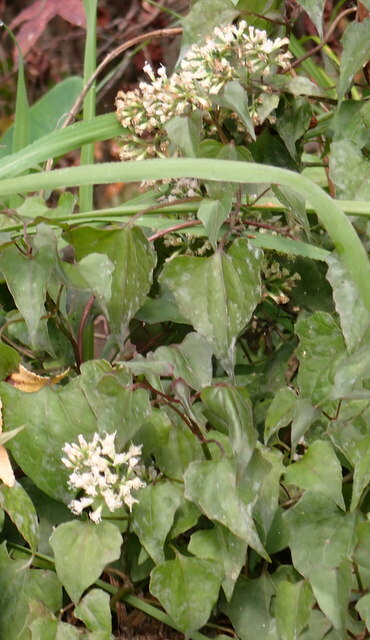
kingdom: Plantae
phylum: Tracheophyta
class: Magnoliopsida
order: Asterales
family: Asteraceae
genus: Mikania
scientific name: Mikania scandens
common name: Climbing hempvine
